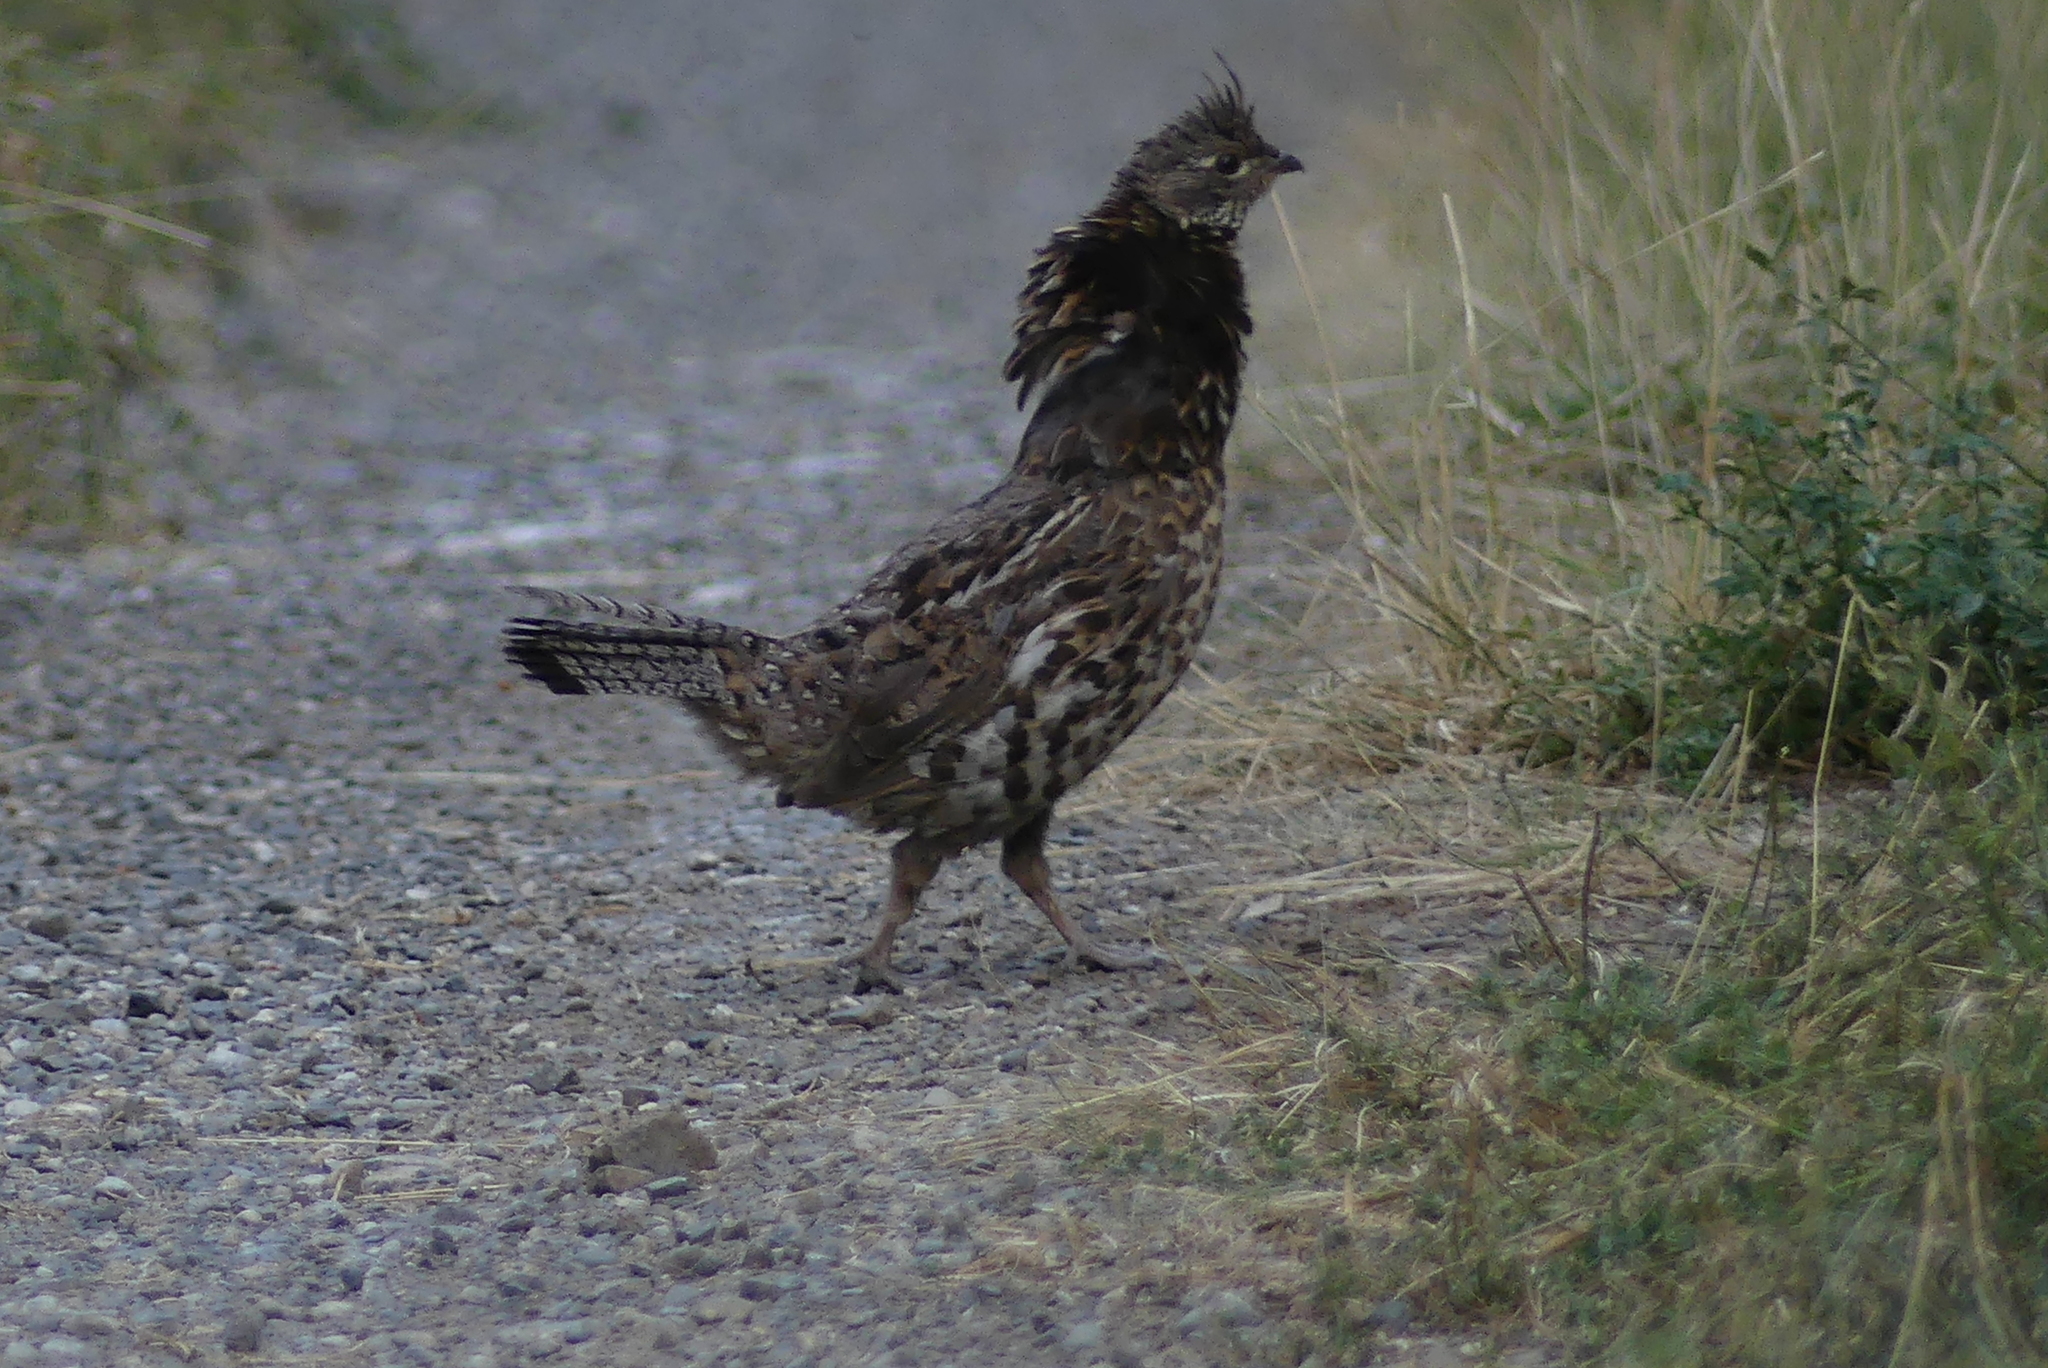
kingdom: Animalia
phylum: Chordata
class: Aves
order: Galliformes
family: Phasianidae
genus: Bonasa
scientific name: Bonasa umbellus
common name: Ruffed grouse
